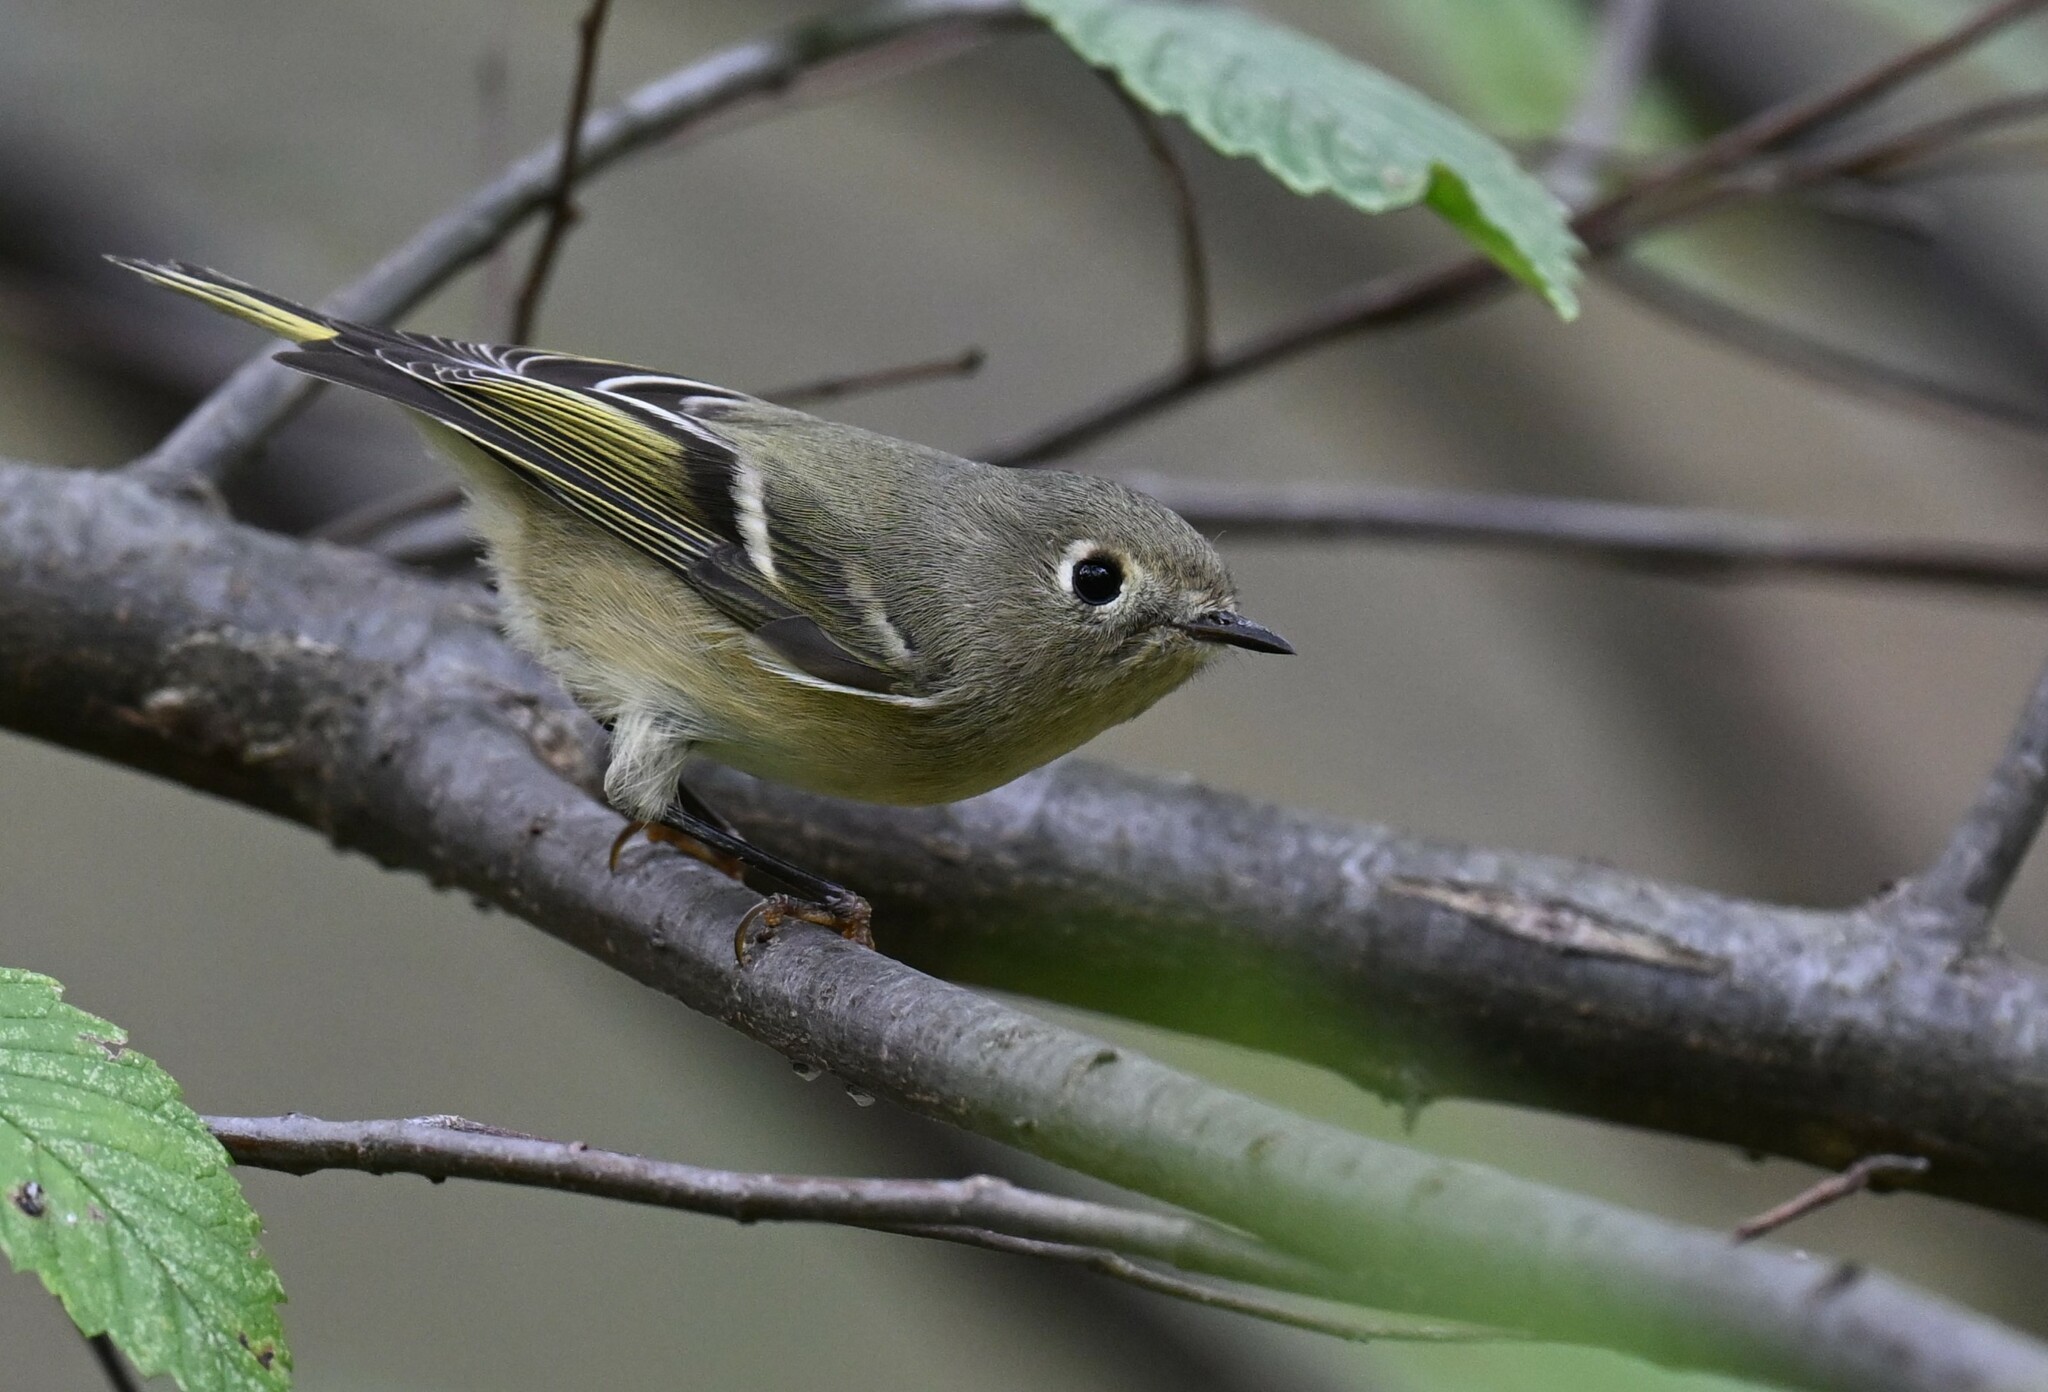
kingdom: Animalia
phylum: Chordata
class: Aves
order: Passeriformes
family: Regulidae
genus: Regulus
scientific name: Regulus calendula
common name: Ruby-crowned kinglet
